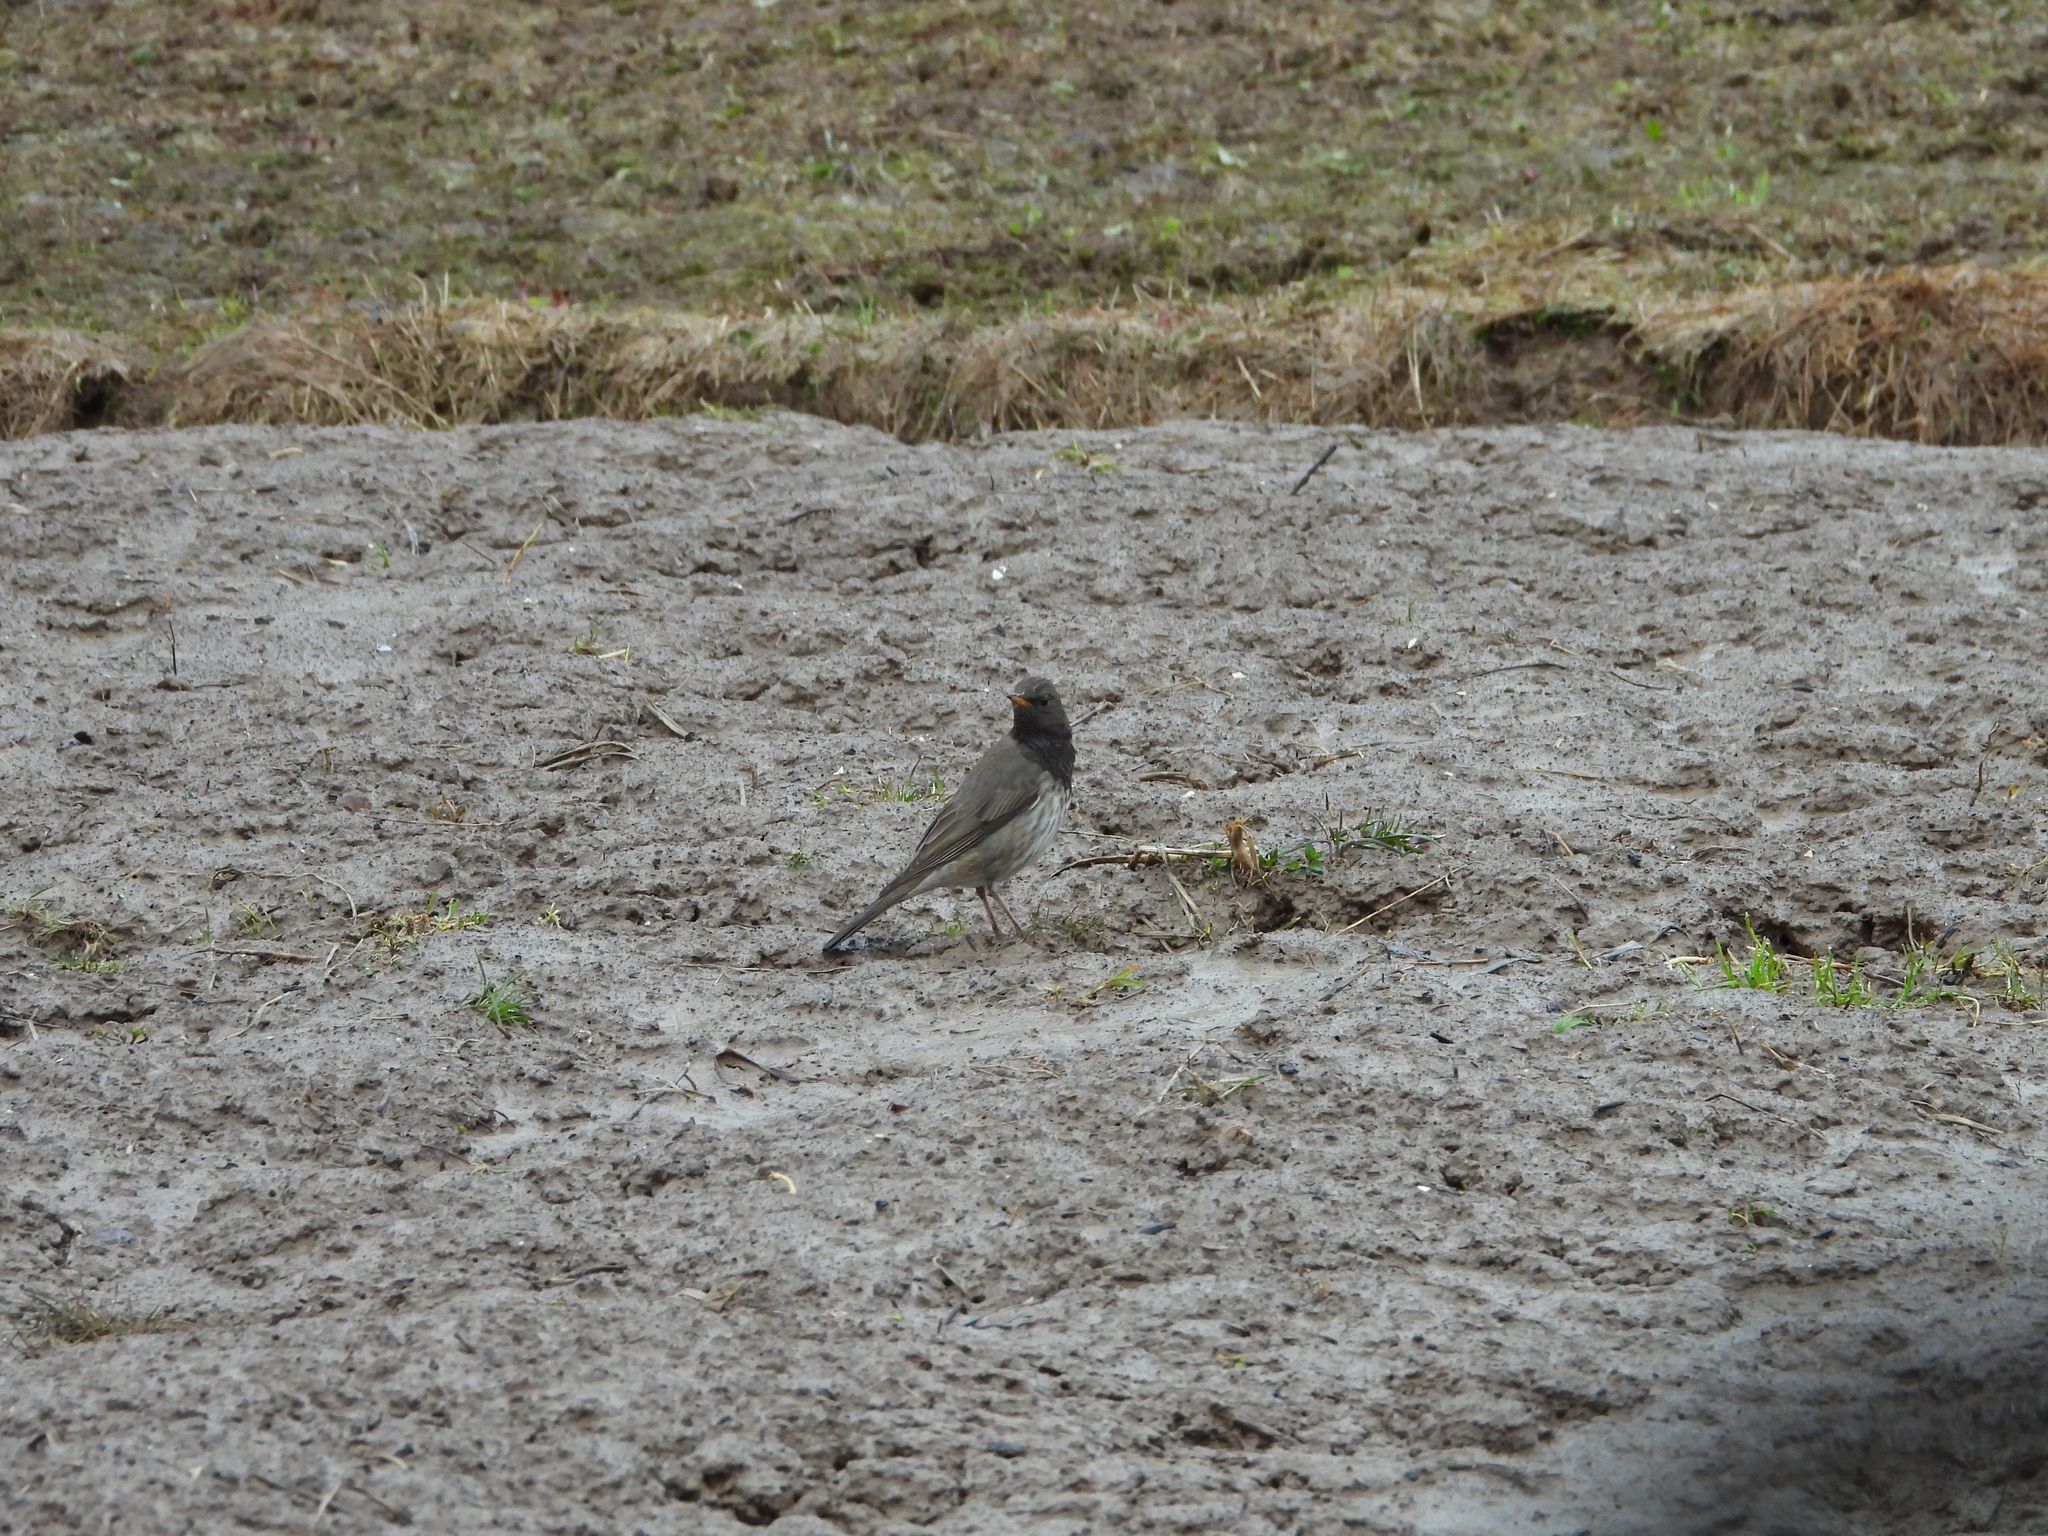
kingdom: Animalia
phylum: Chordata
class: Aves
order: Passeriformes
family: Turdidae
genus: Turdus
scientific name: Turdus atrogularis
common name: Black-throated thrush
